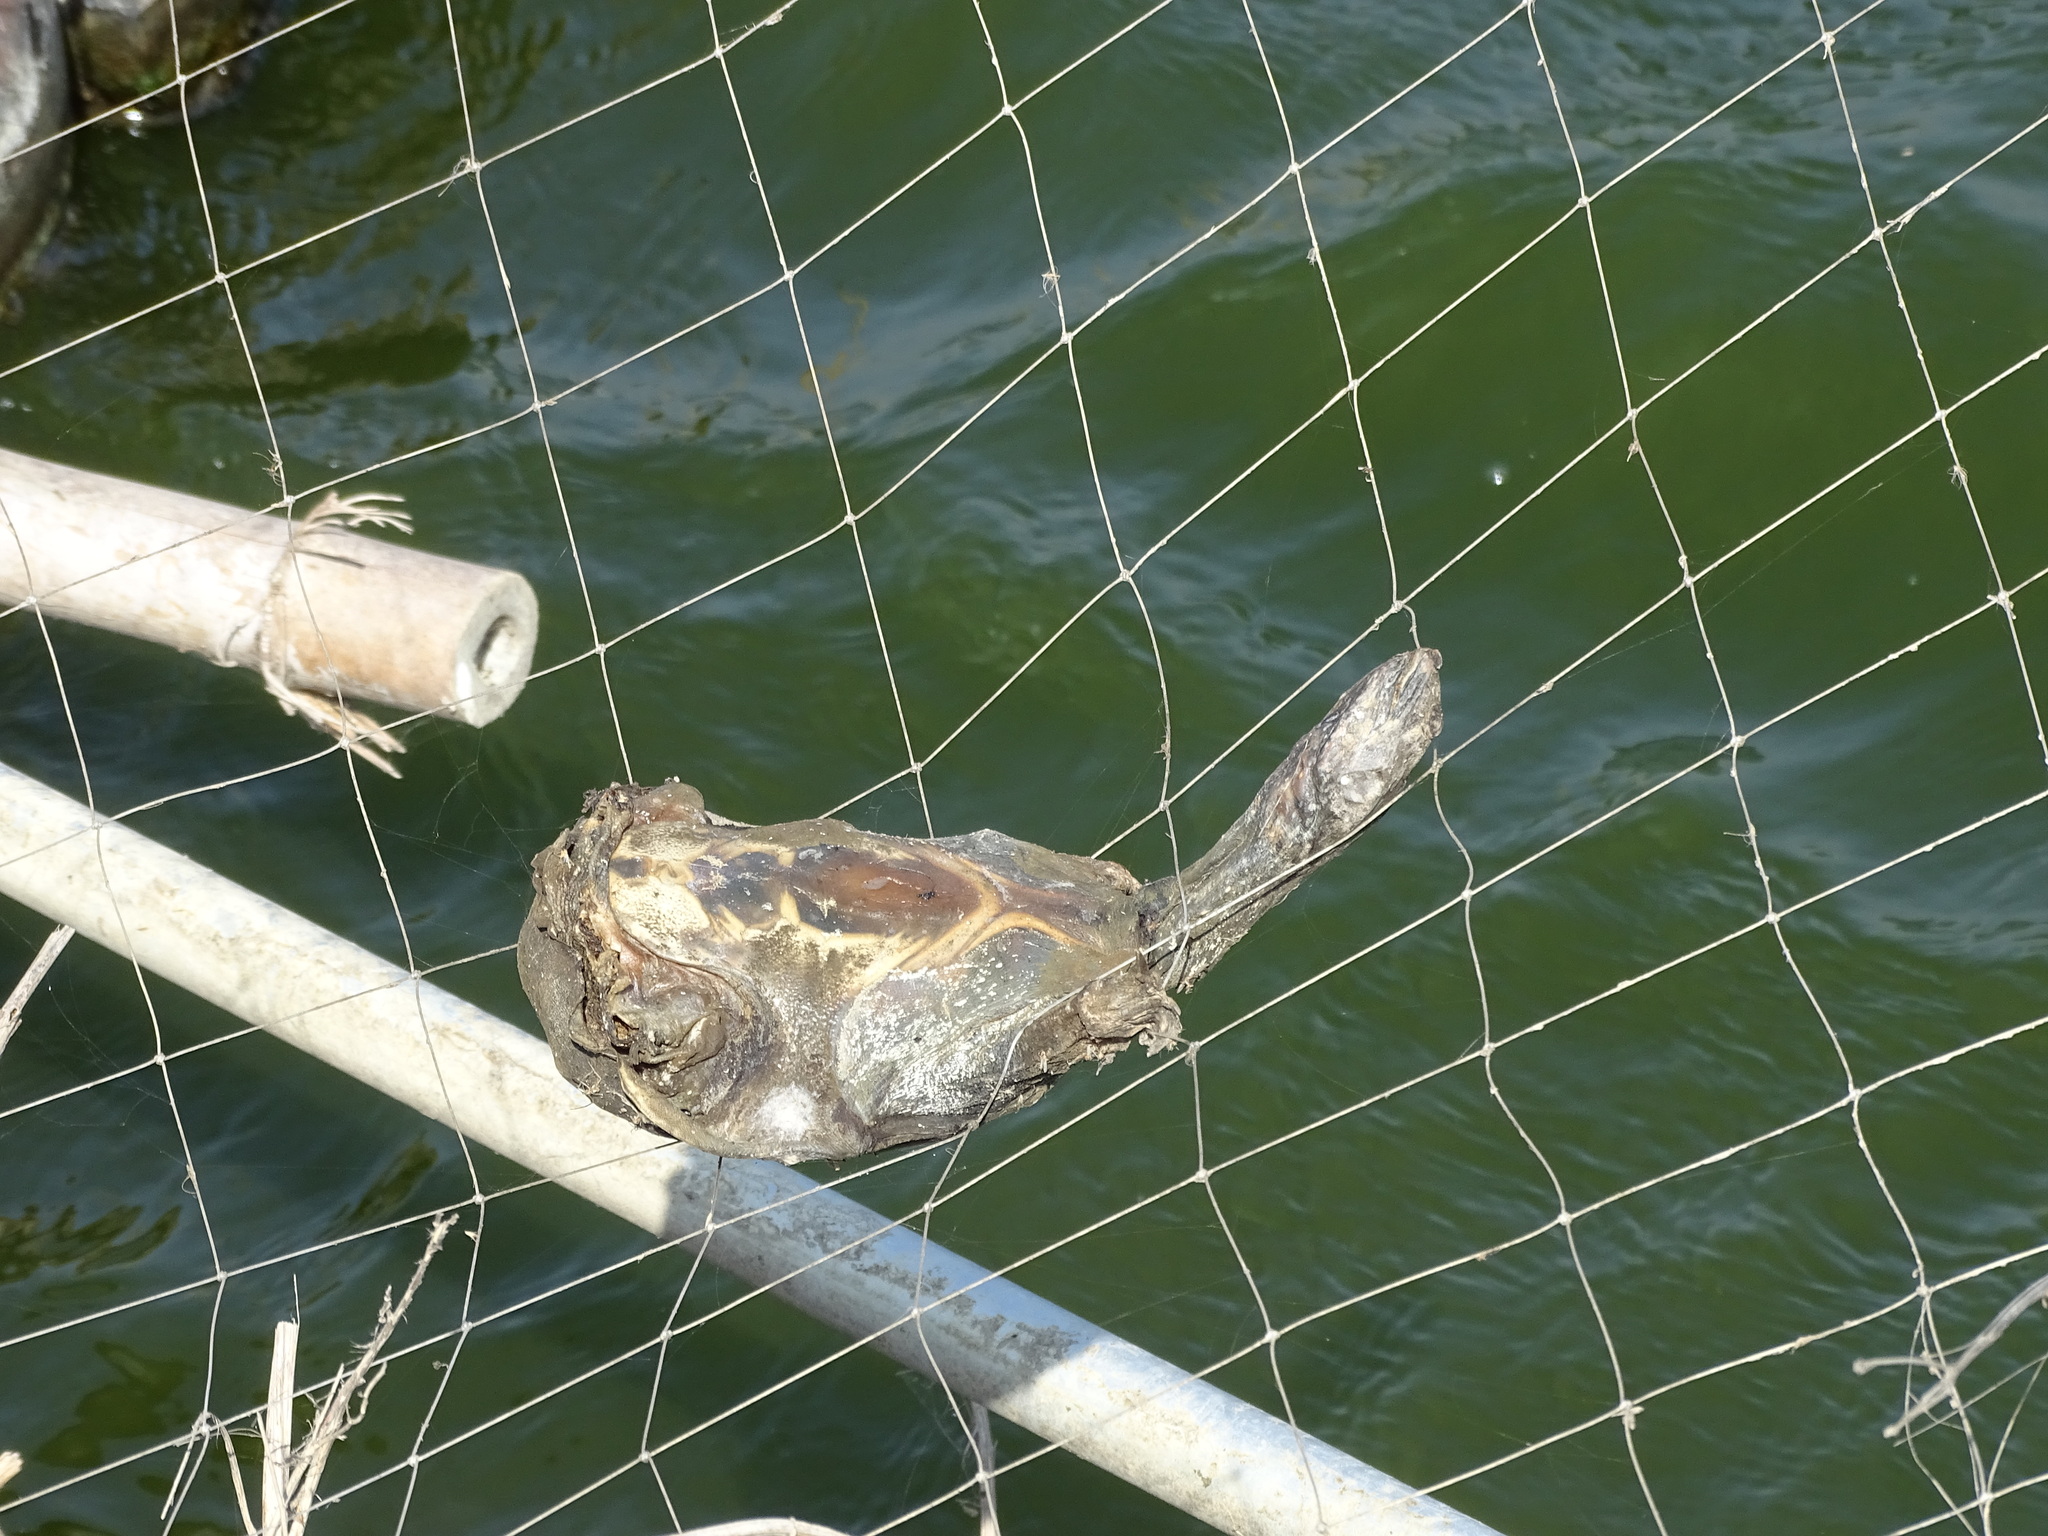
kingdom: Animalia
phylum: Chordata
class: Testudines
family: Trionychidae
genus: Pelodiscus
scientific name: Pelodiscus sinensis
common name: Chinese softshell turtle
